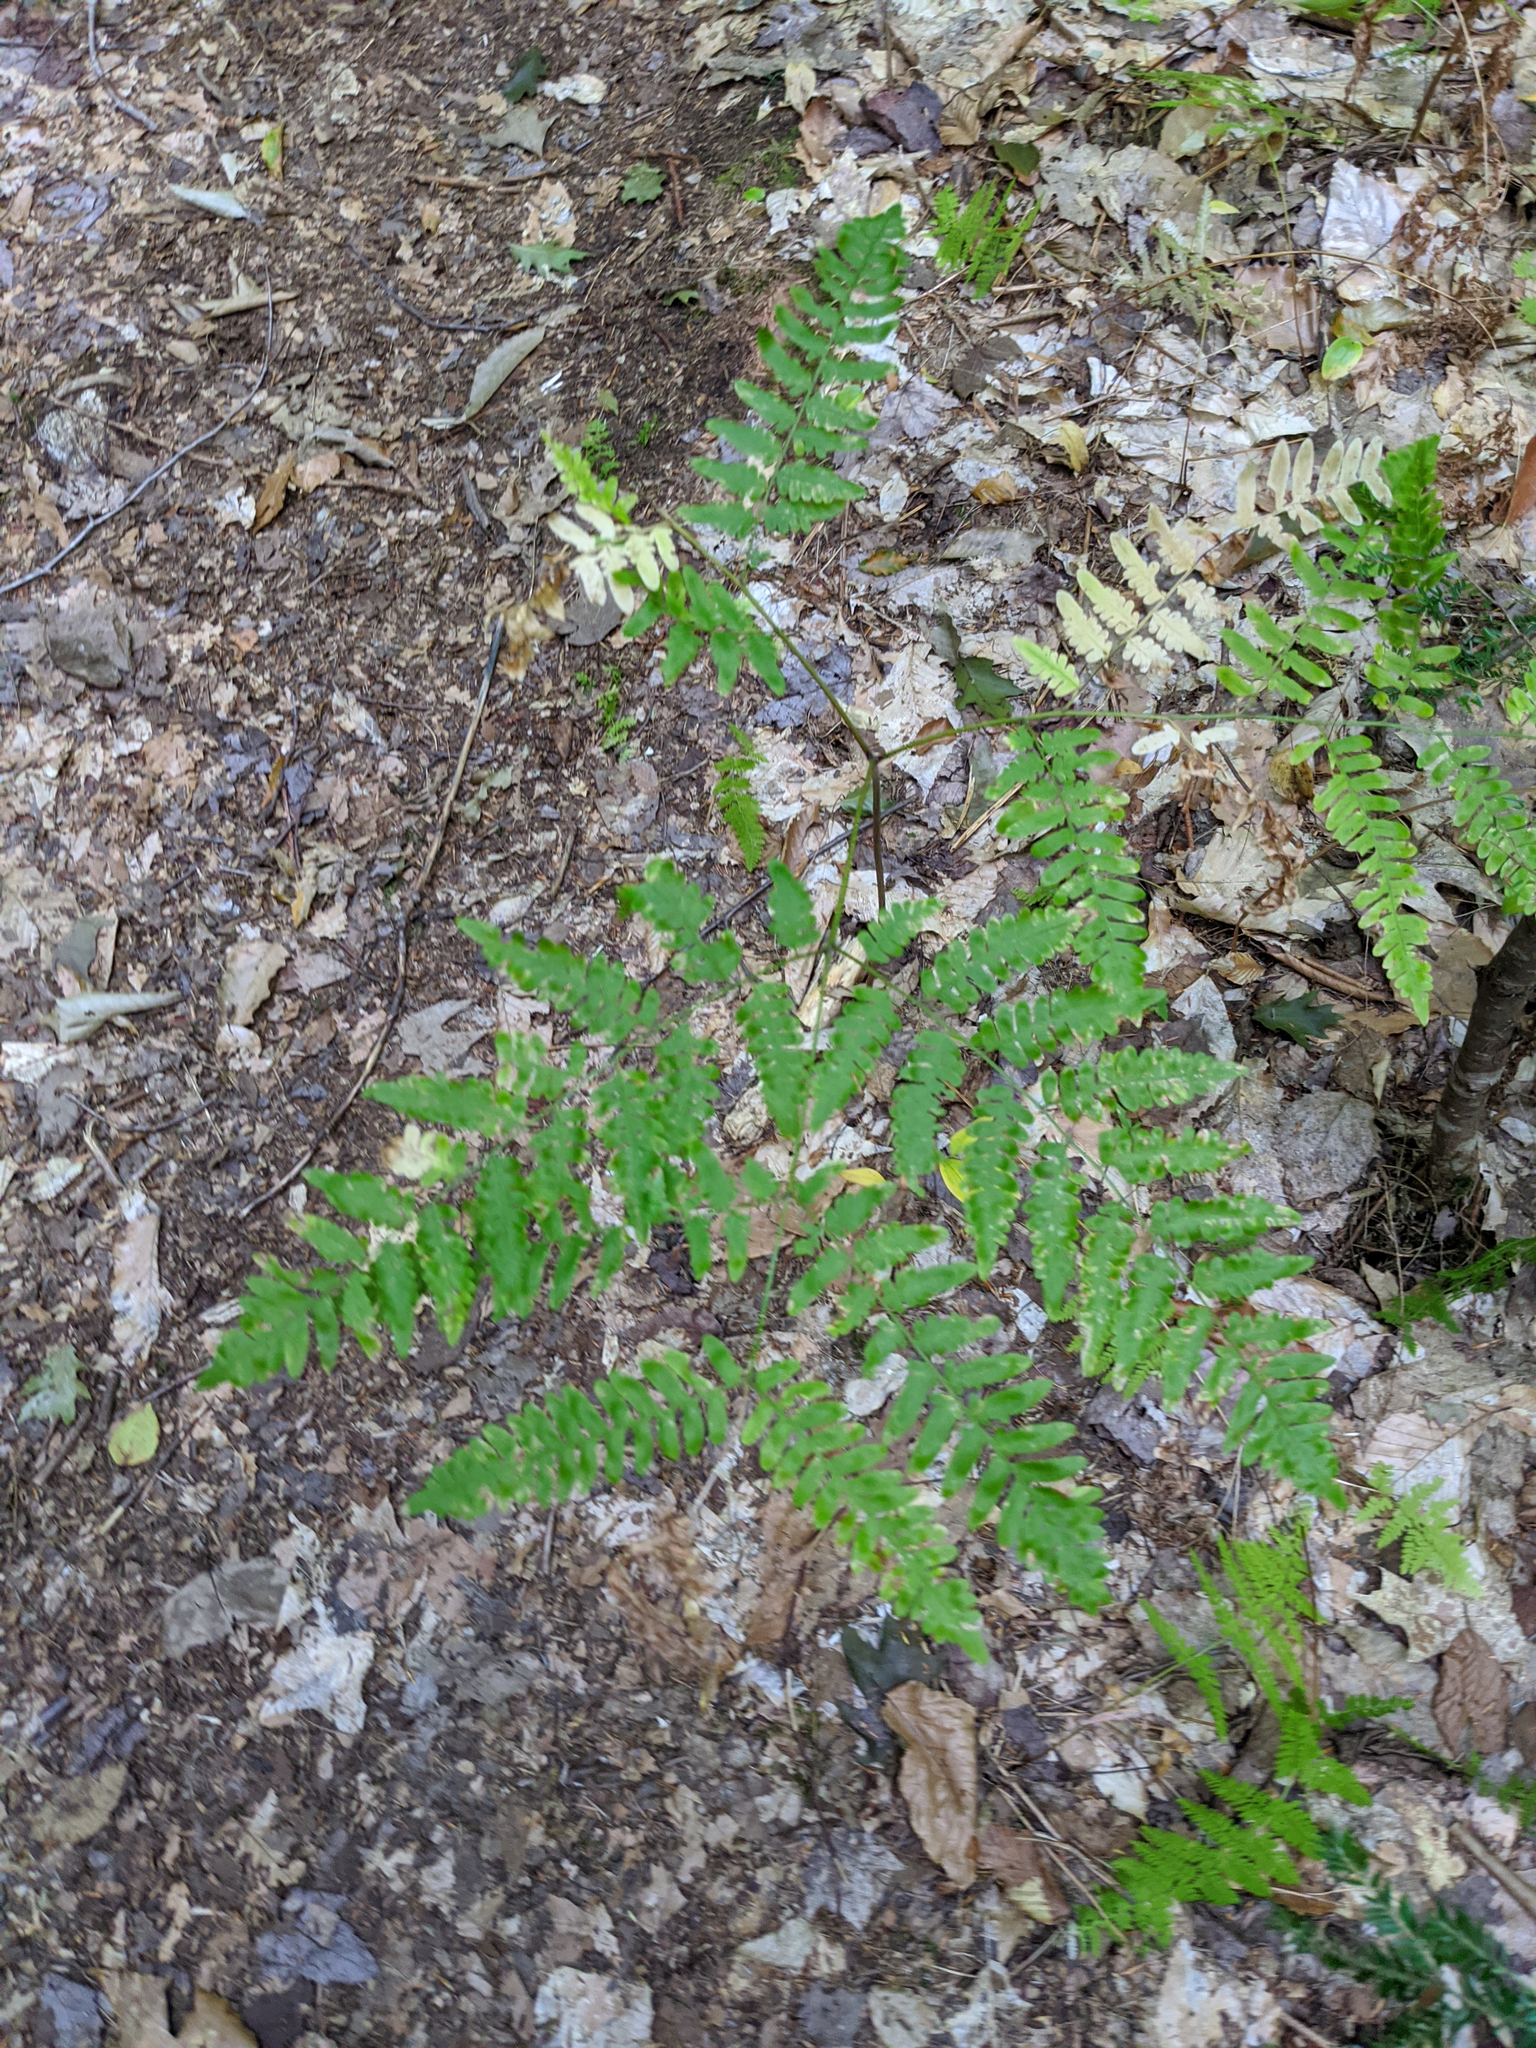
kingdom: Plantae
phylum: Tracheophyta
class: Polypodiopsida
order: Polypodiales
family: Dennstaedtiaceae
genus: Pteridium
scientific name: Pteridium aquilinum
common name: Bracken
